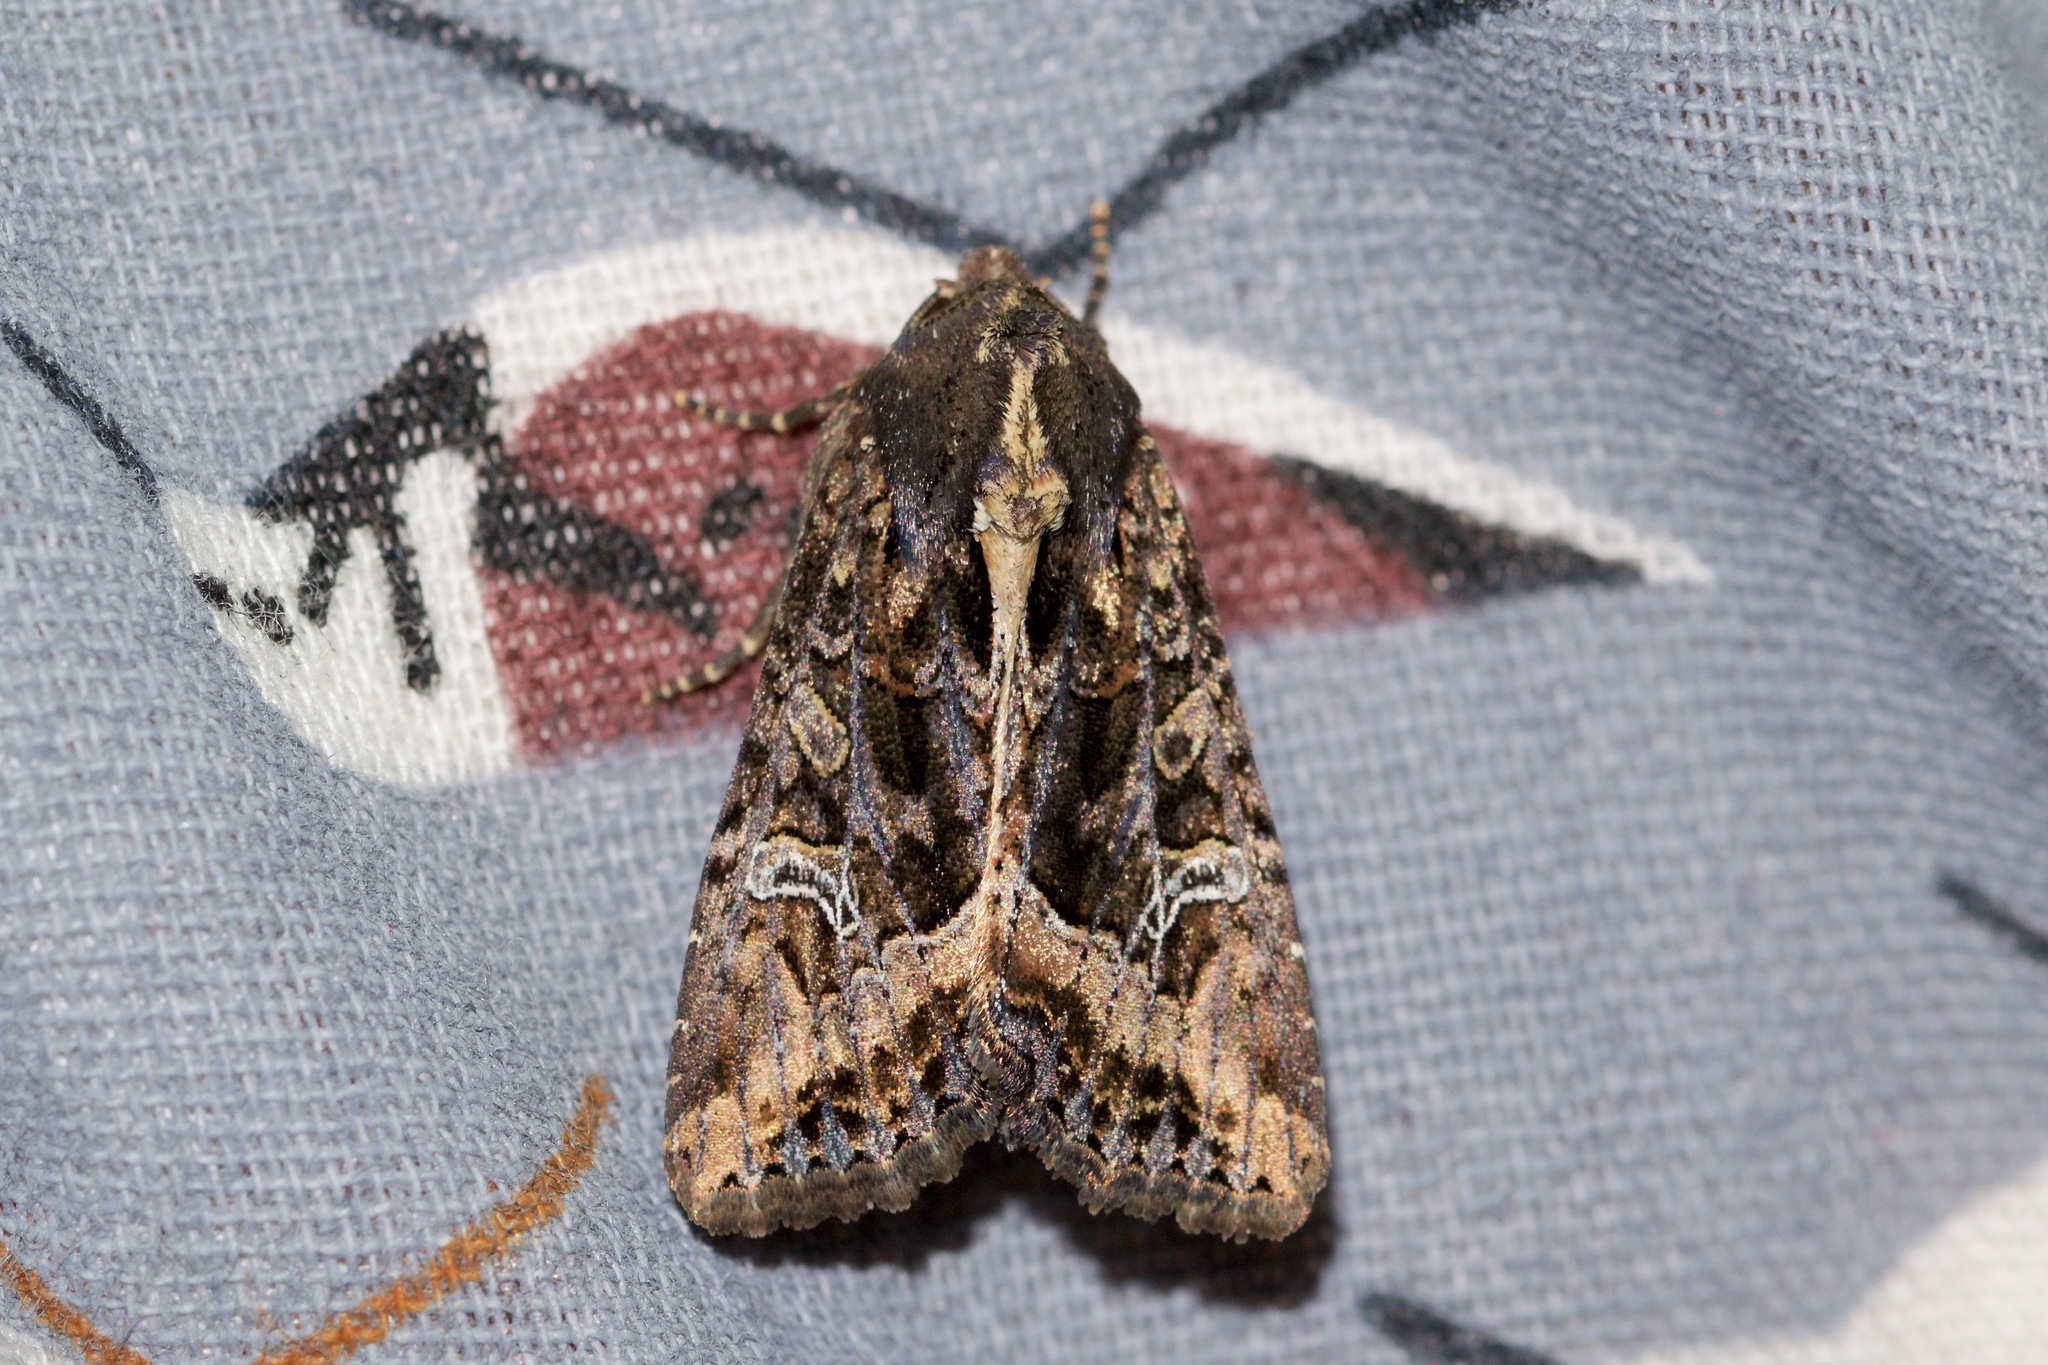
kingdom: Animalia
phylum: Arthropoda
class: Insecta
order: Lepidoptera
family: Noctuidae
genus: Helotropha
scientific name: Helotropha reniformis
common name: Kidney-spotted rustic moth
